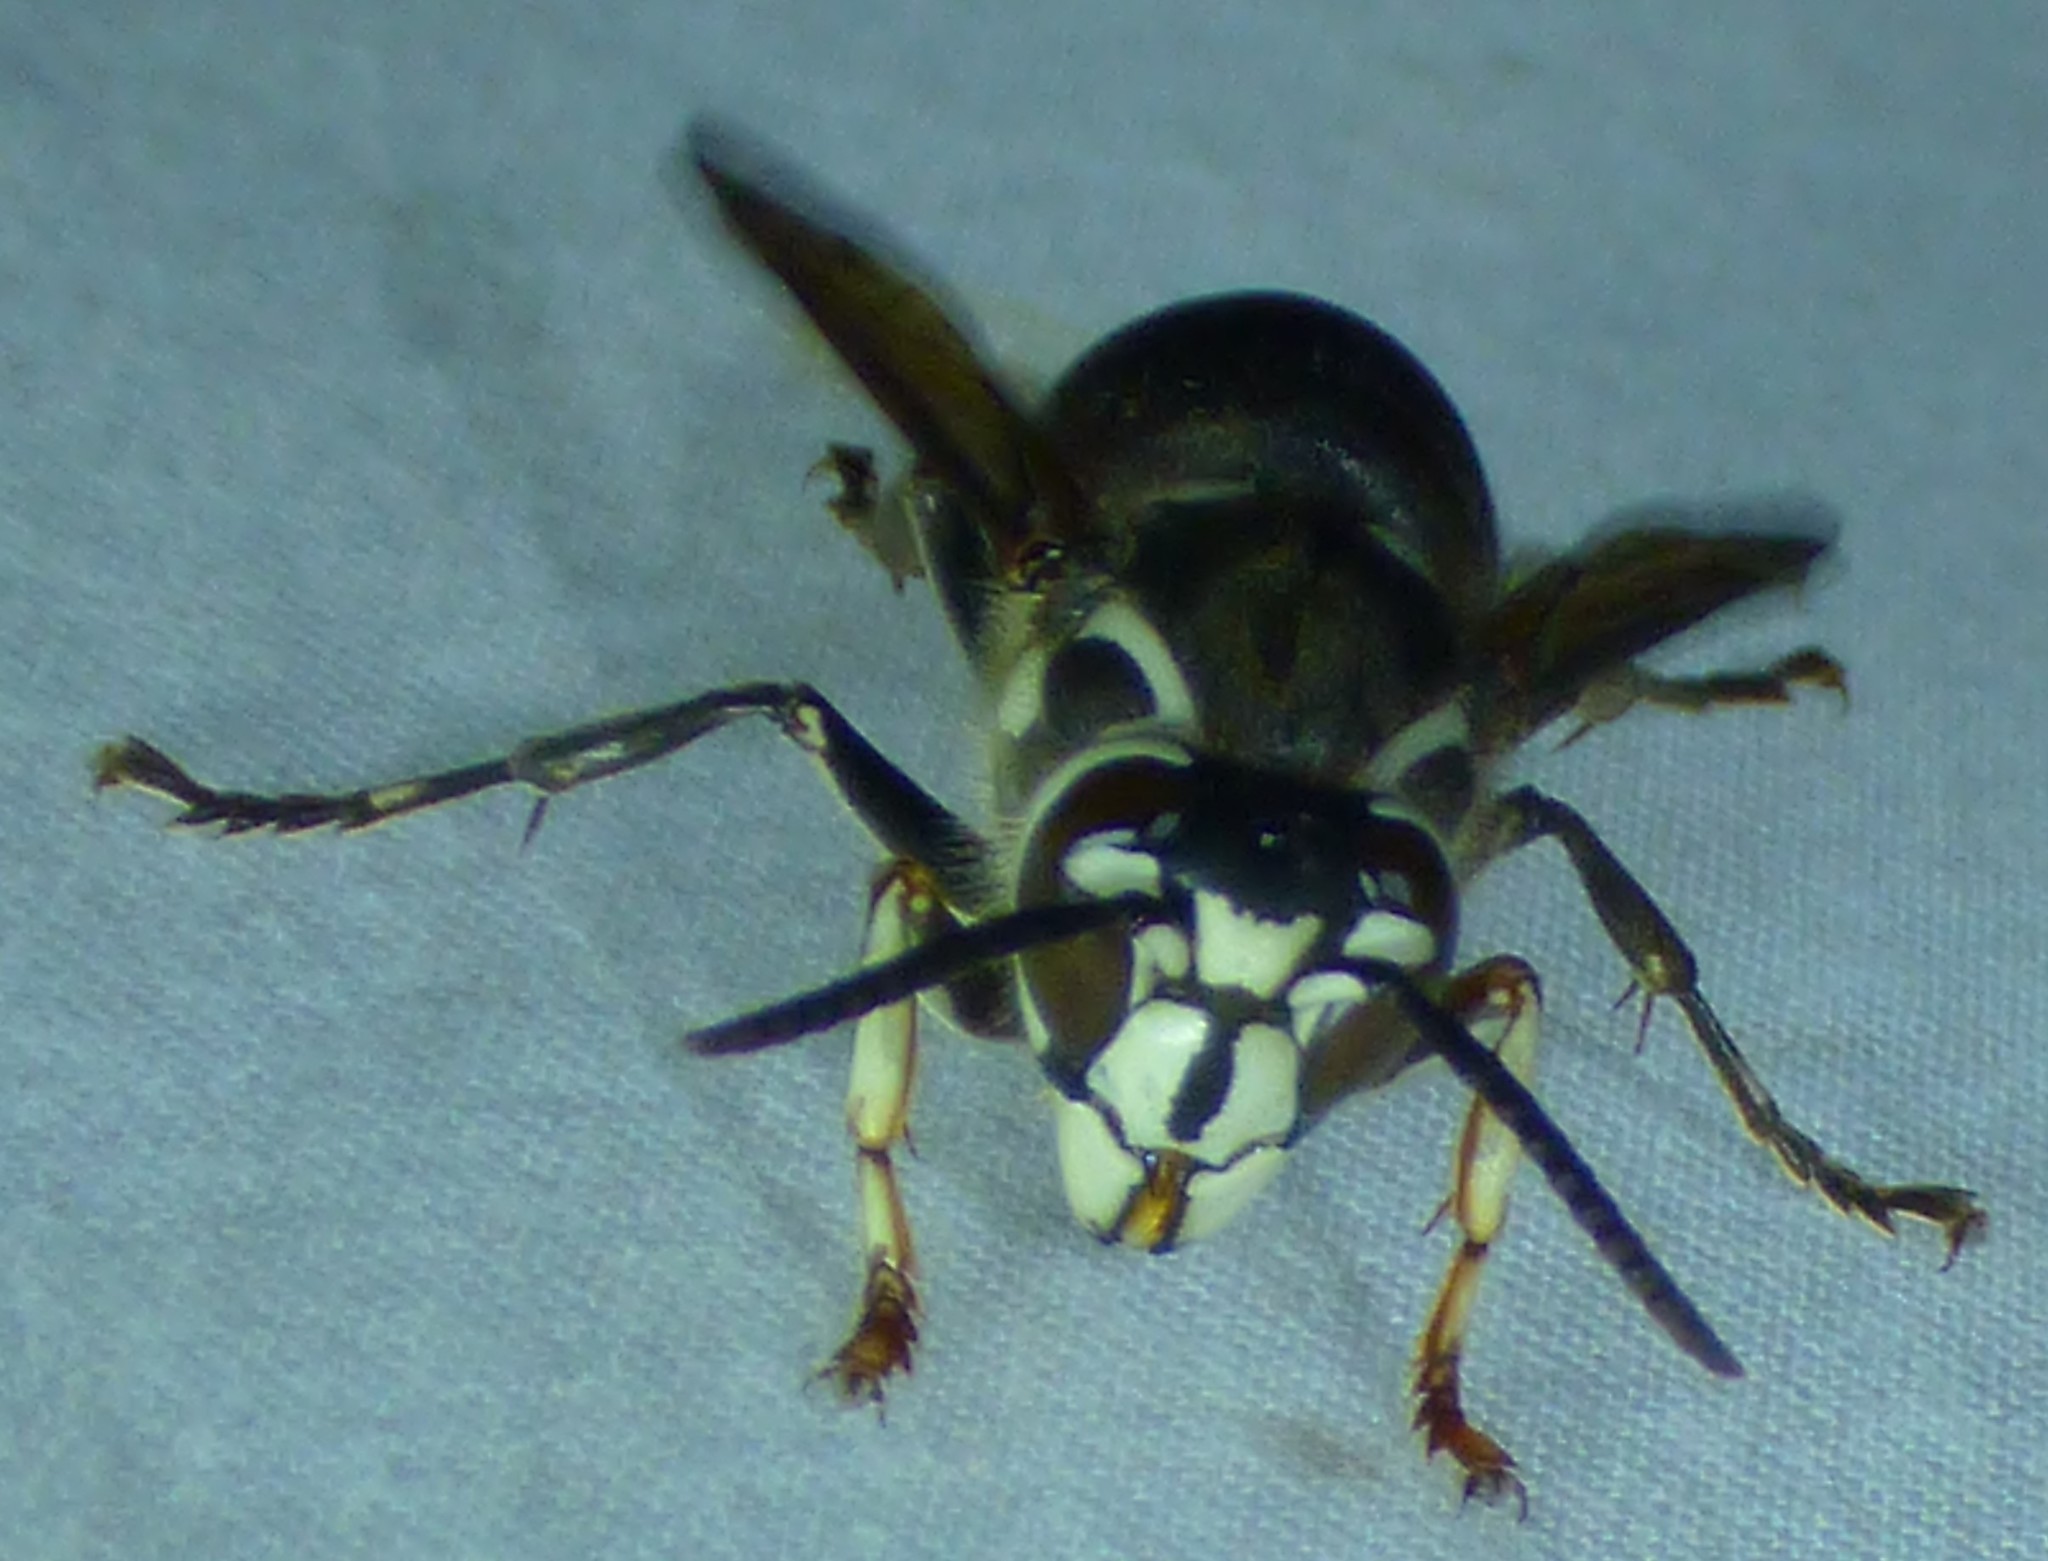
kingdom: Animalia
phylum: Arthropoda
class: Insecta
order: Hymenoptera
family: Vespidae
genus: Dolichovespula
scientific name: Dolichovespula maculata
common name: Bald-faced hornet
